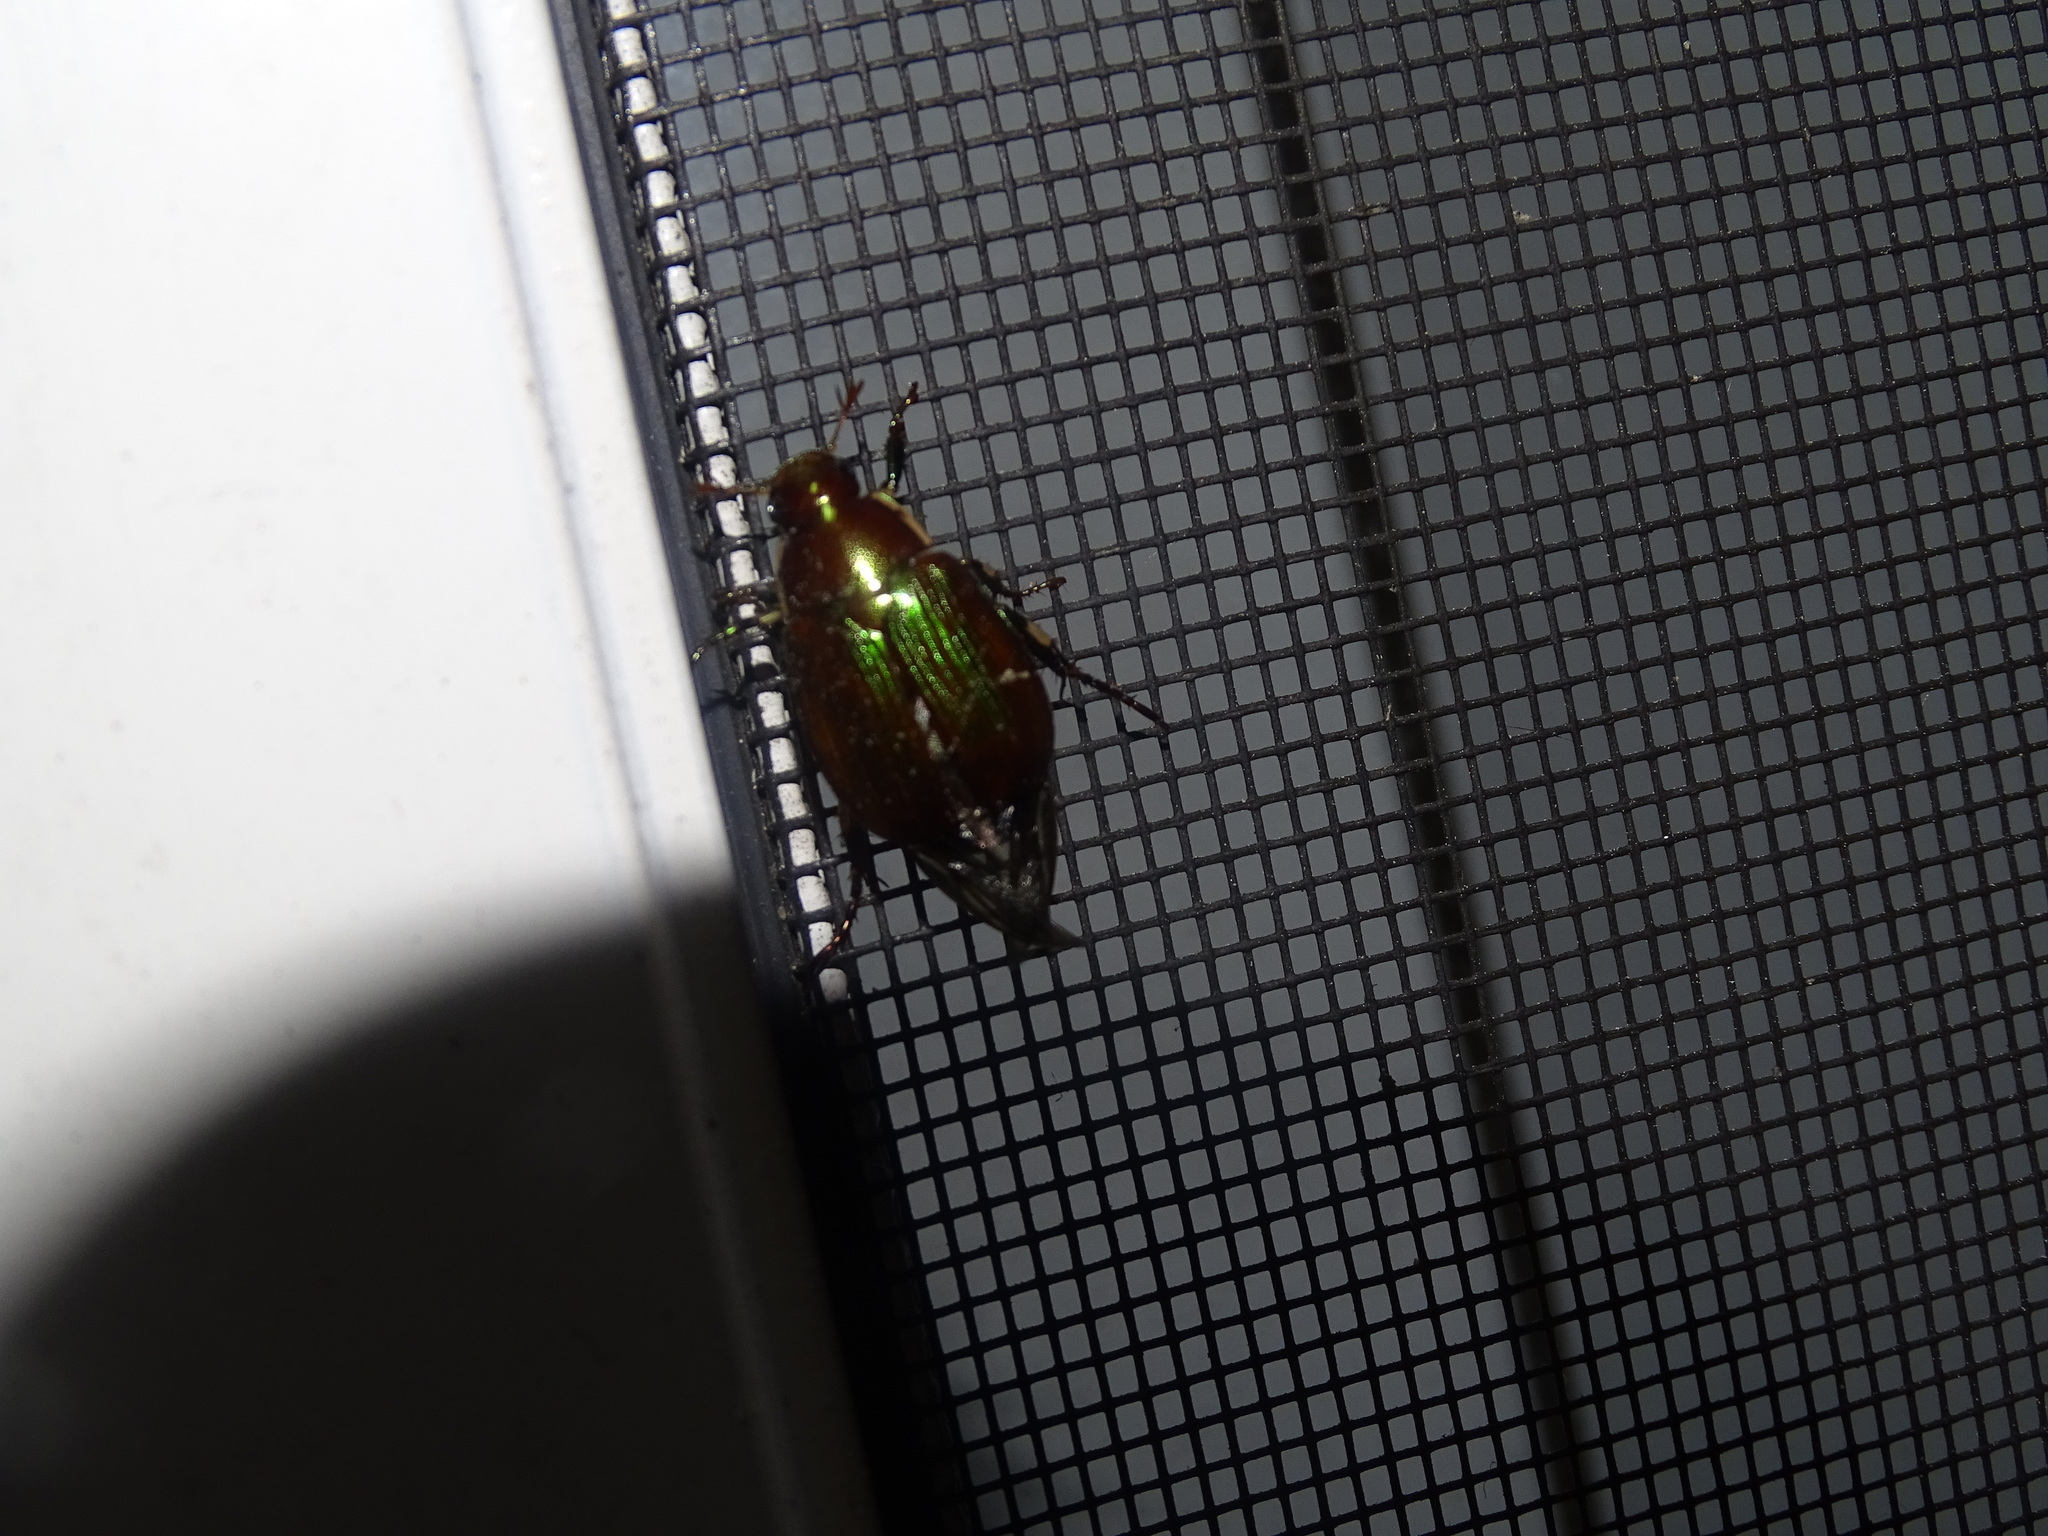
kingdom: Animalia
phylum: Arthropoda
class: Insecta
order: Coleoptera
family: Scarabaeidae
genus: Callistethus
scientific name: Callistethus marginatus
